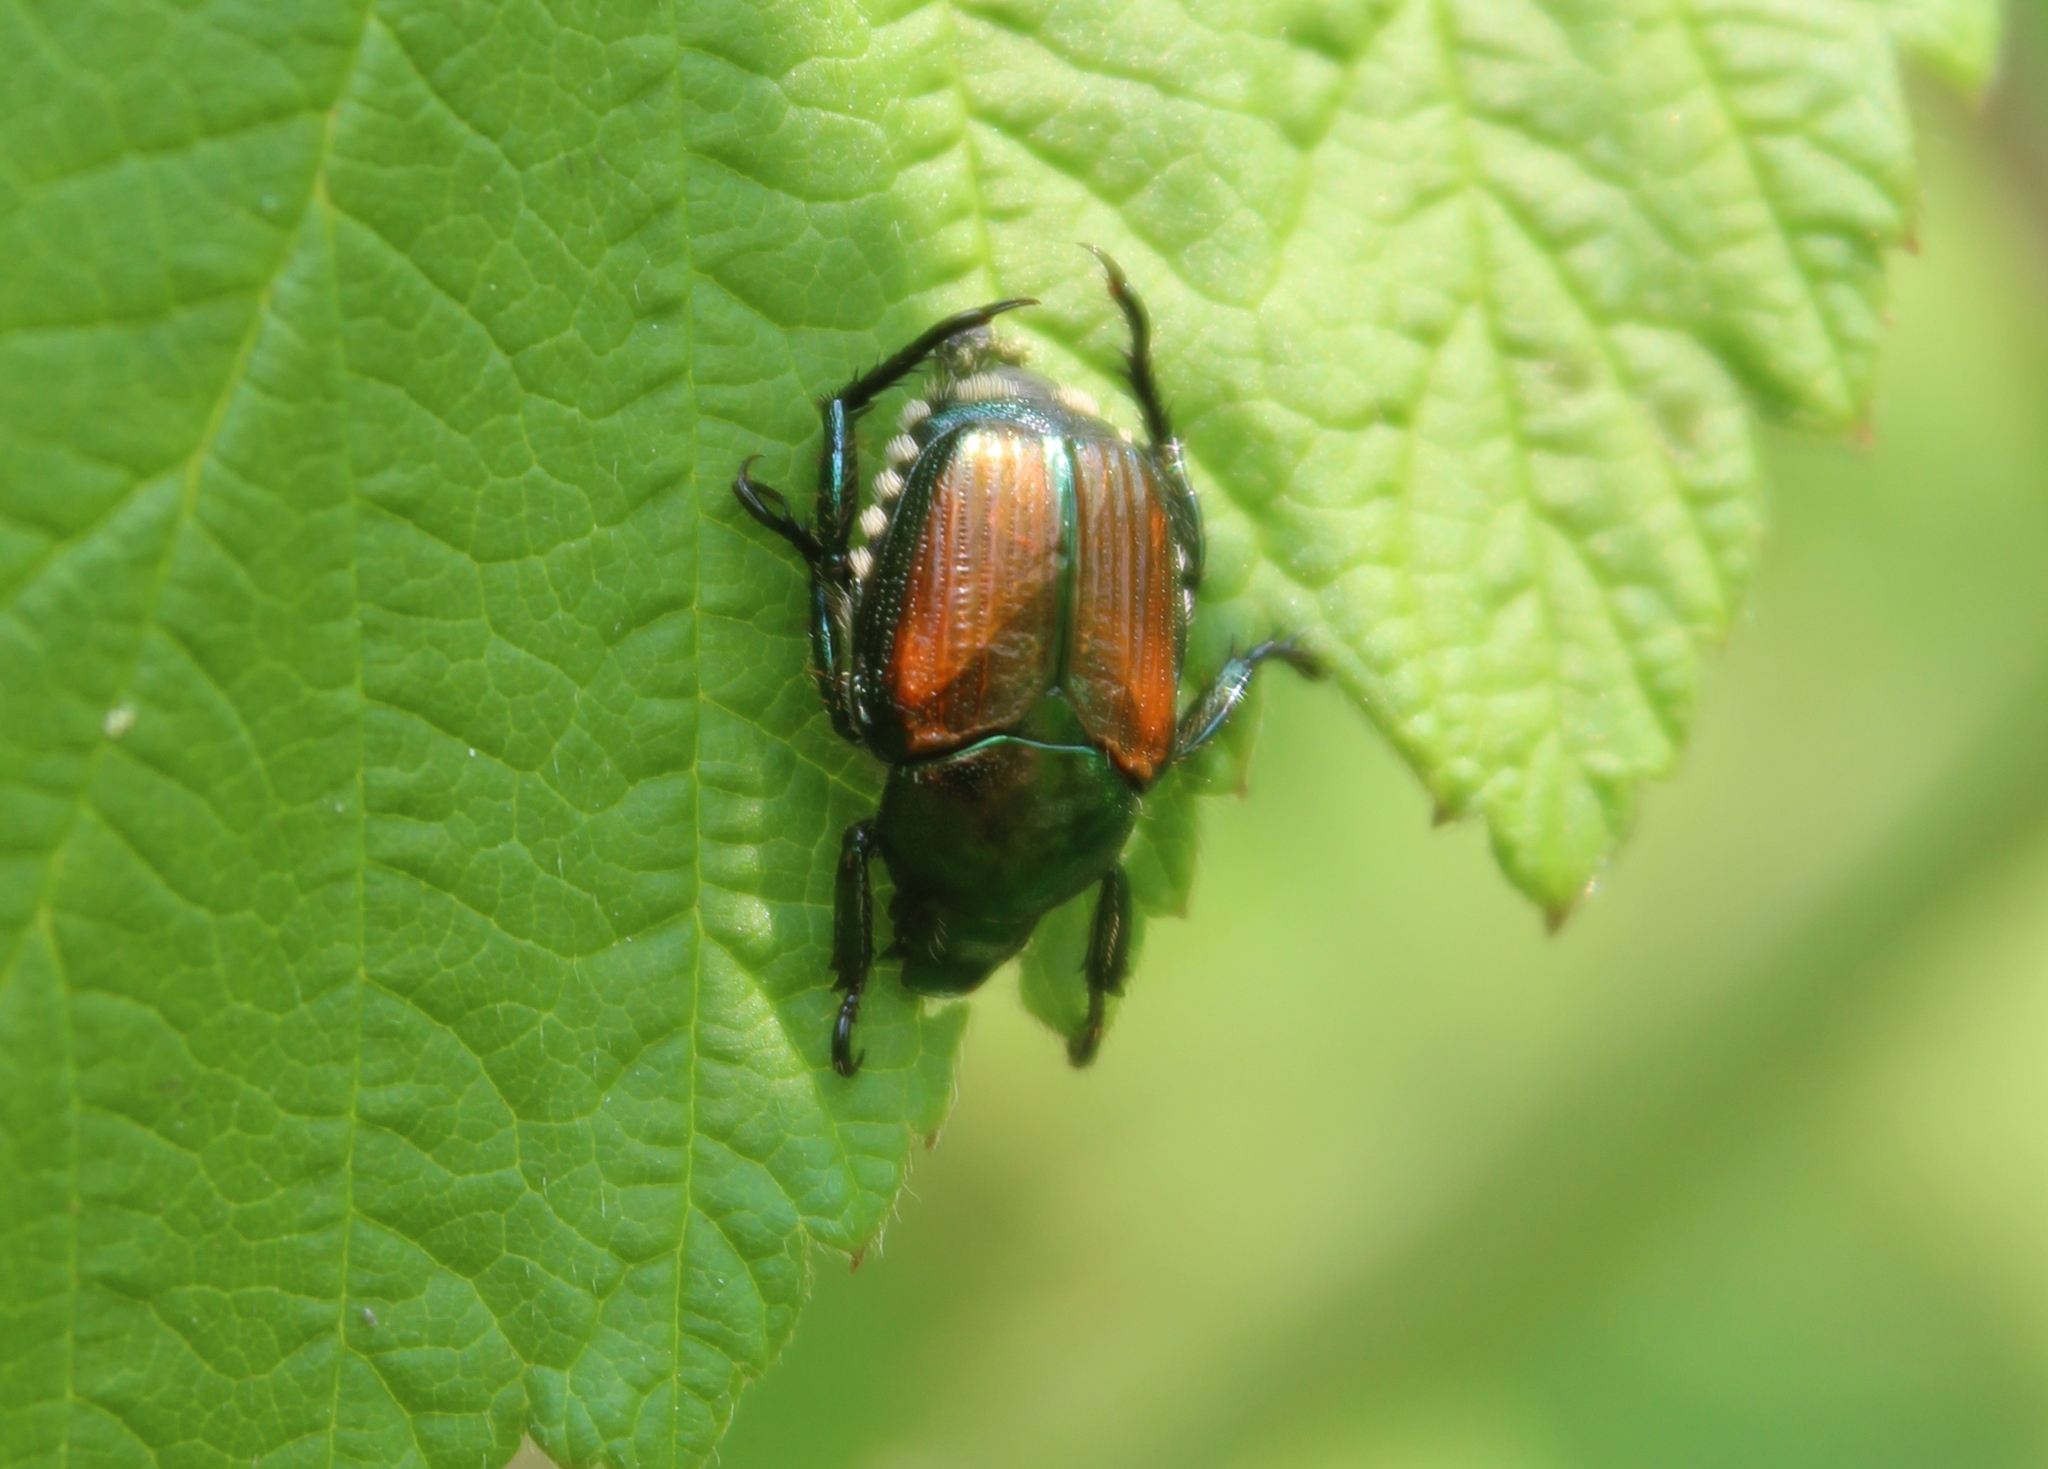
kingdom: Animalia
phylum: Arthropoda
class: Insecta
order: Coleoptera
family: Scarabaeidae
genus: Popillia
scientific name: Popillia japonica
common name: Japanese beetle
